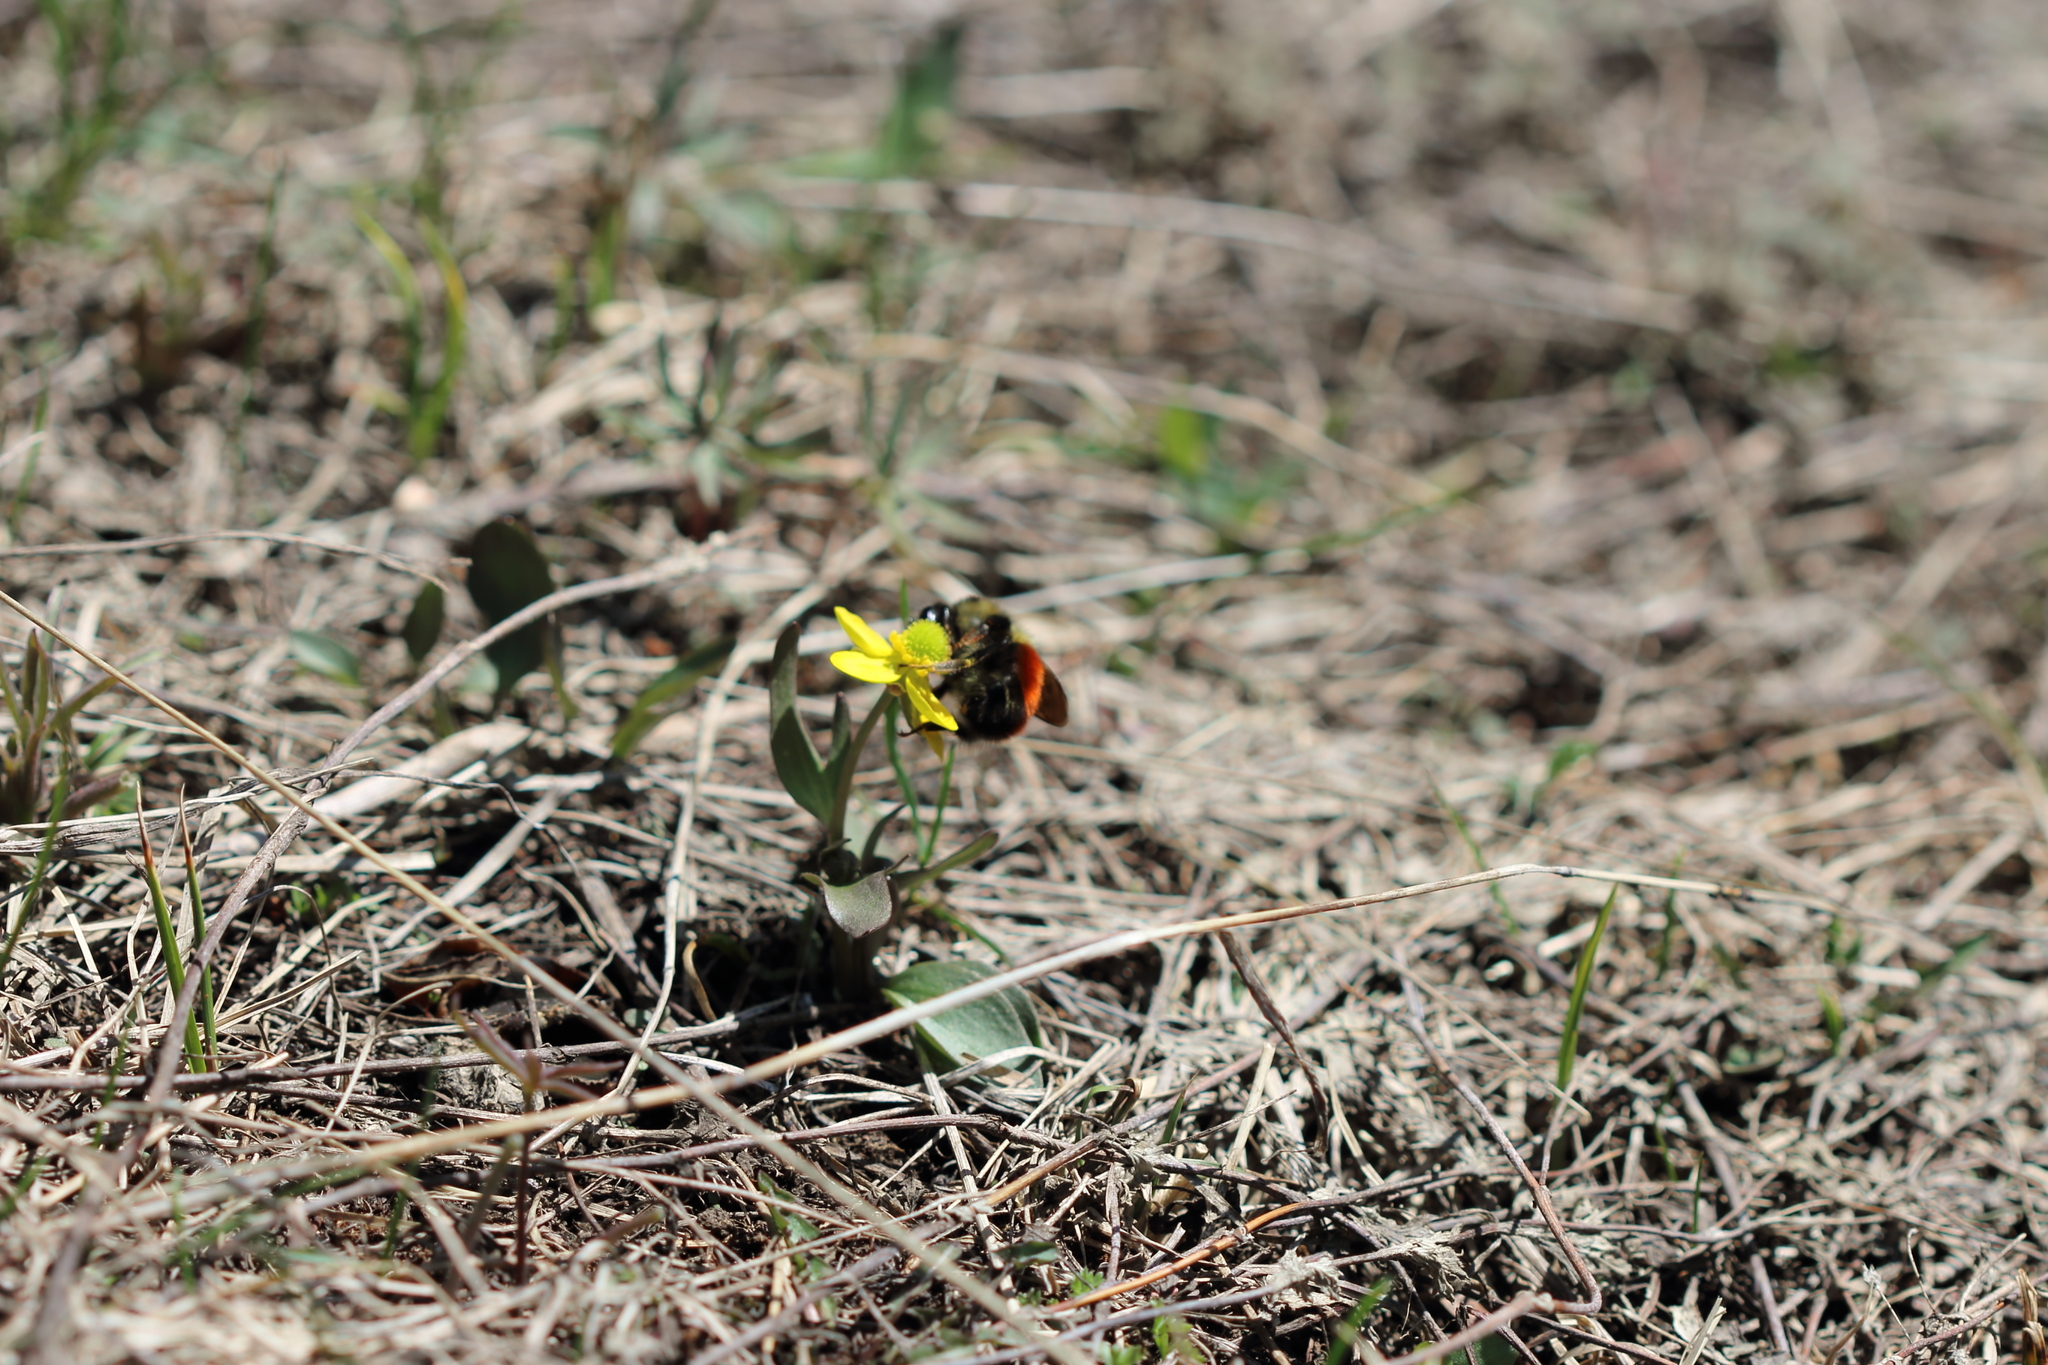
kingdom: Animalia
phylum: Arthropoda
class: Insecta
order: Hymenoptera
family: Apidae
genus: Bombus
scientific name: Bombus melanopygus
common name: Black tail bumble bee
